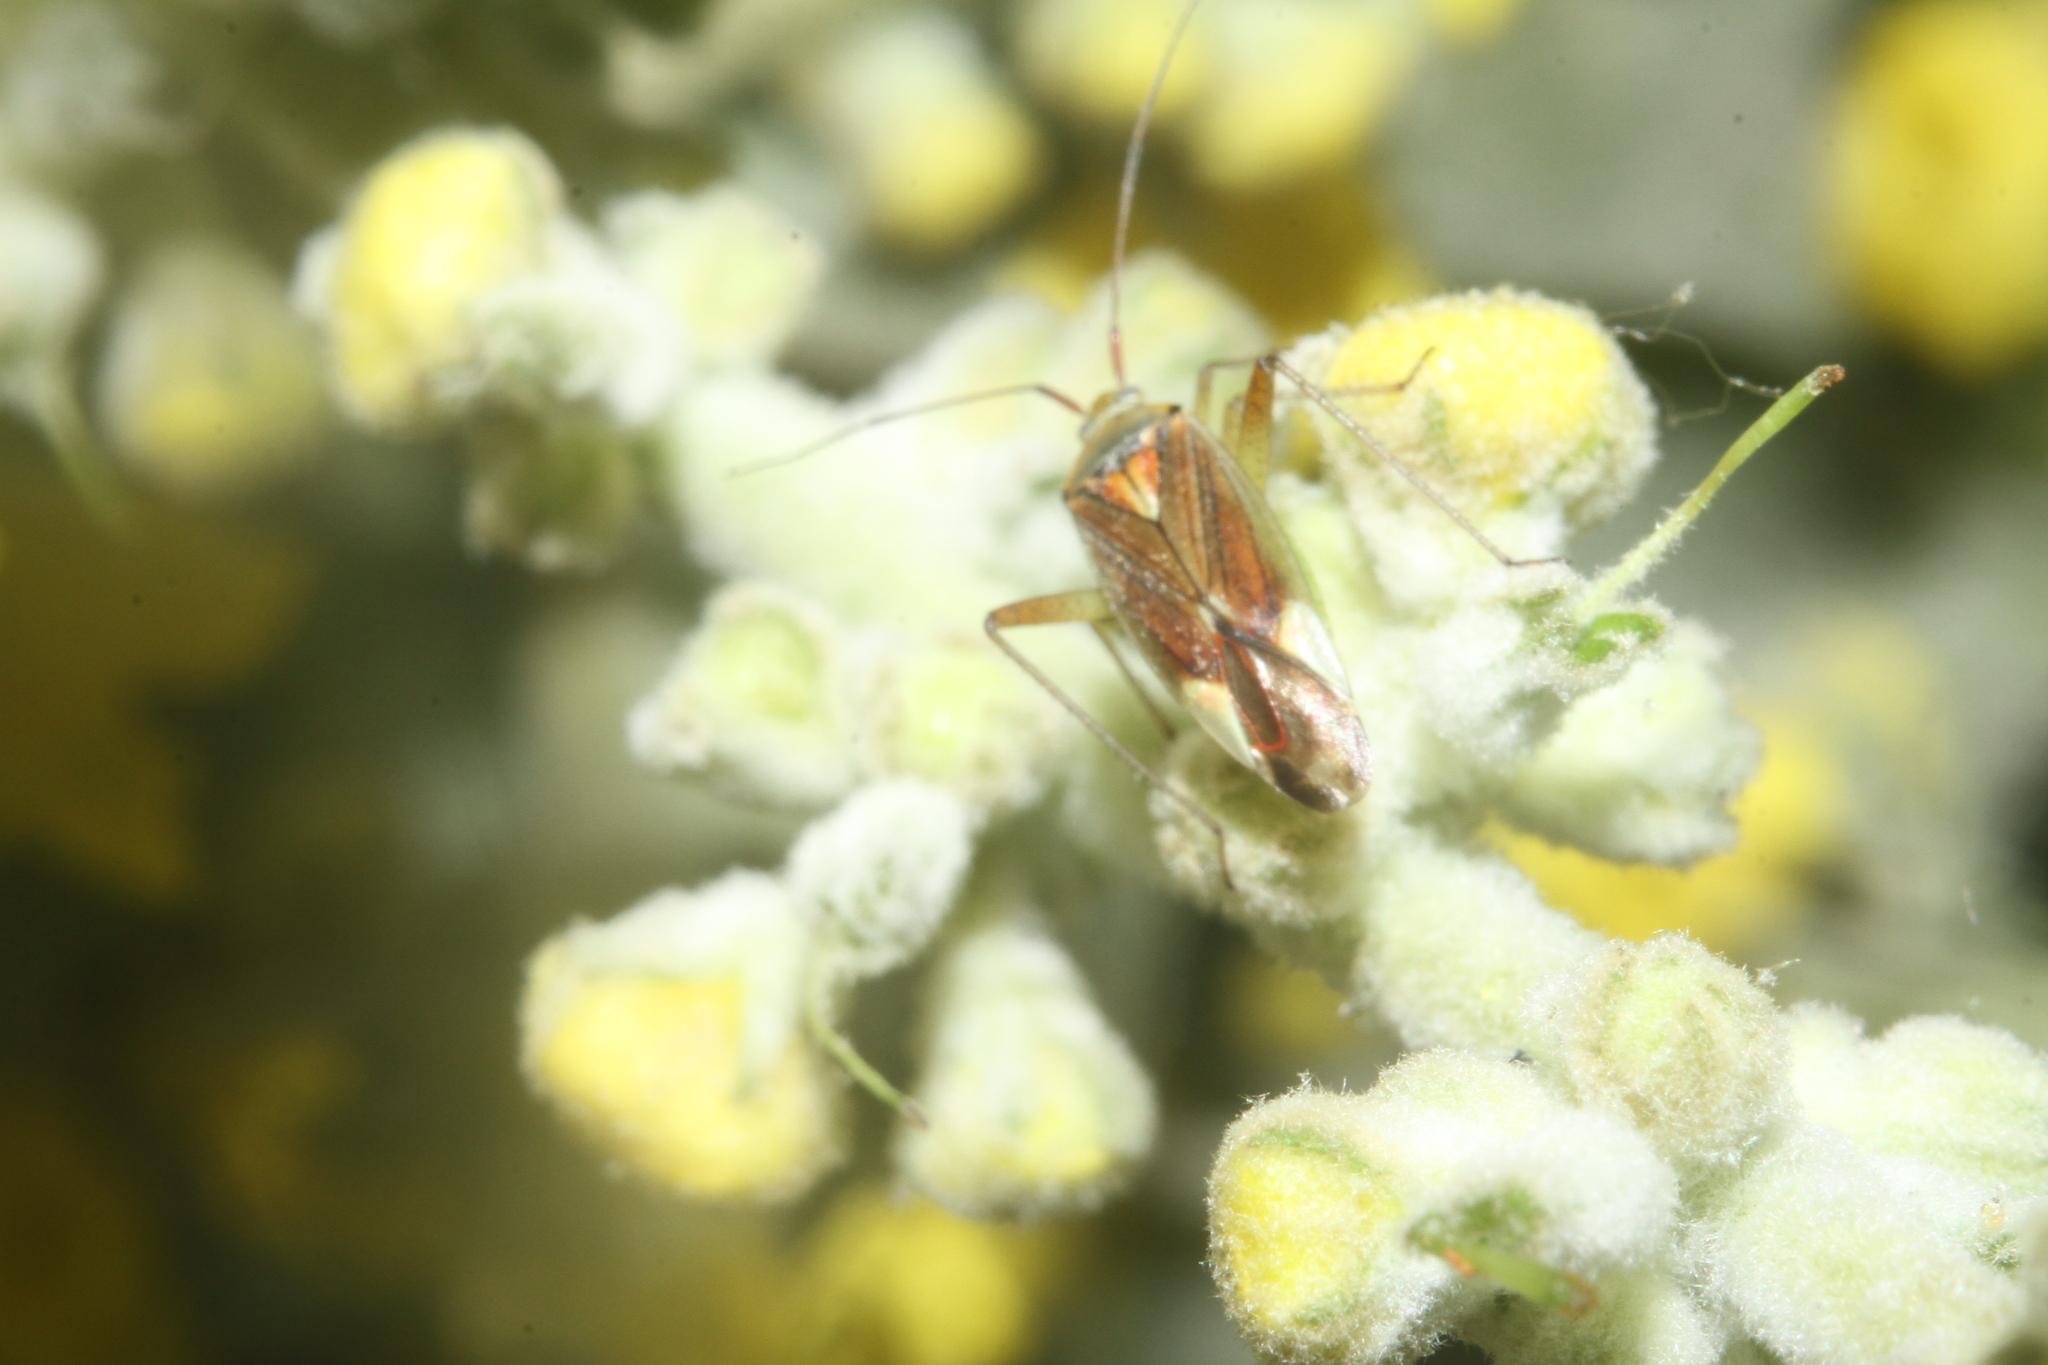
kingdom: Animalia
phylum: Arthropoda
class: Insecta
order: Hemiptera
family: Miridae
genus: Closterotomus
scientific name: Closterotomus trivialis
